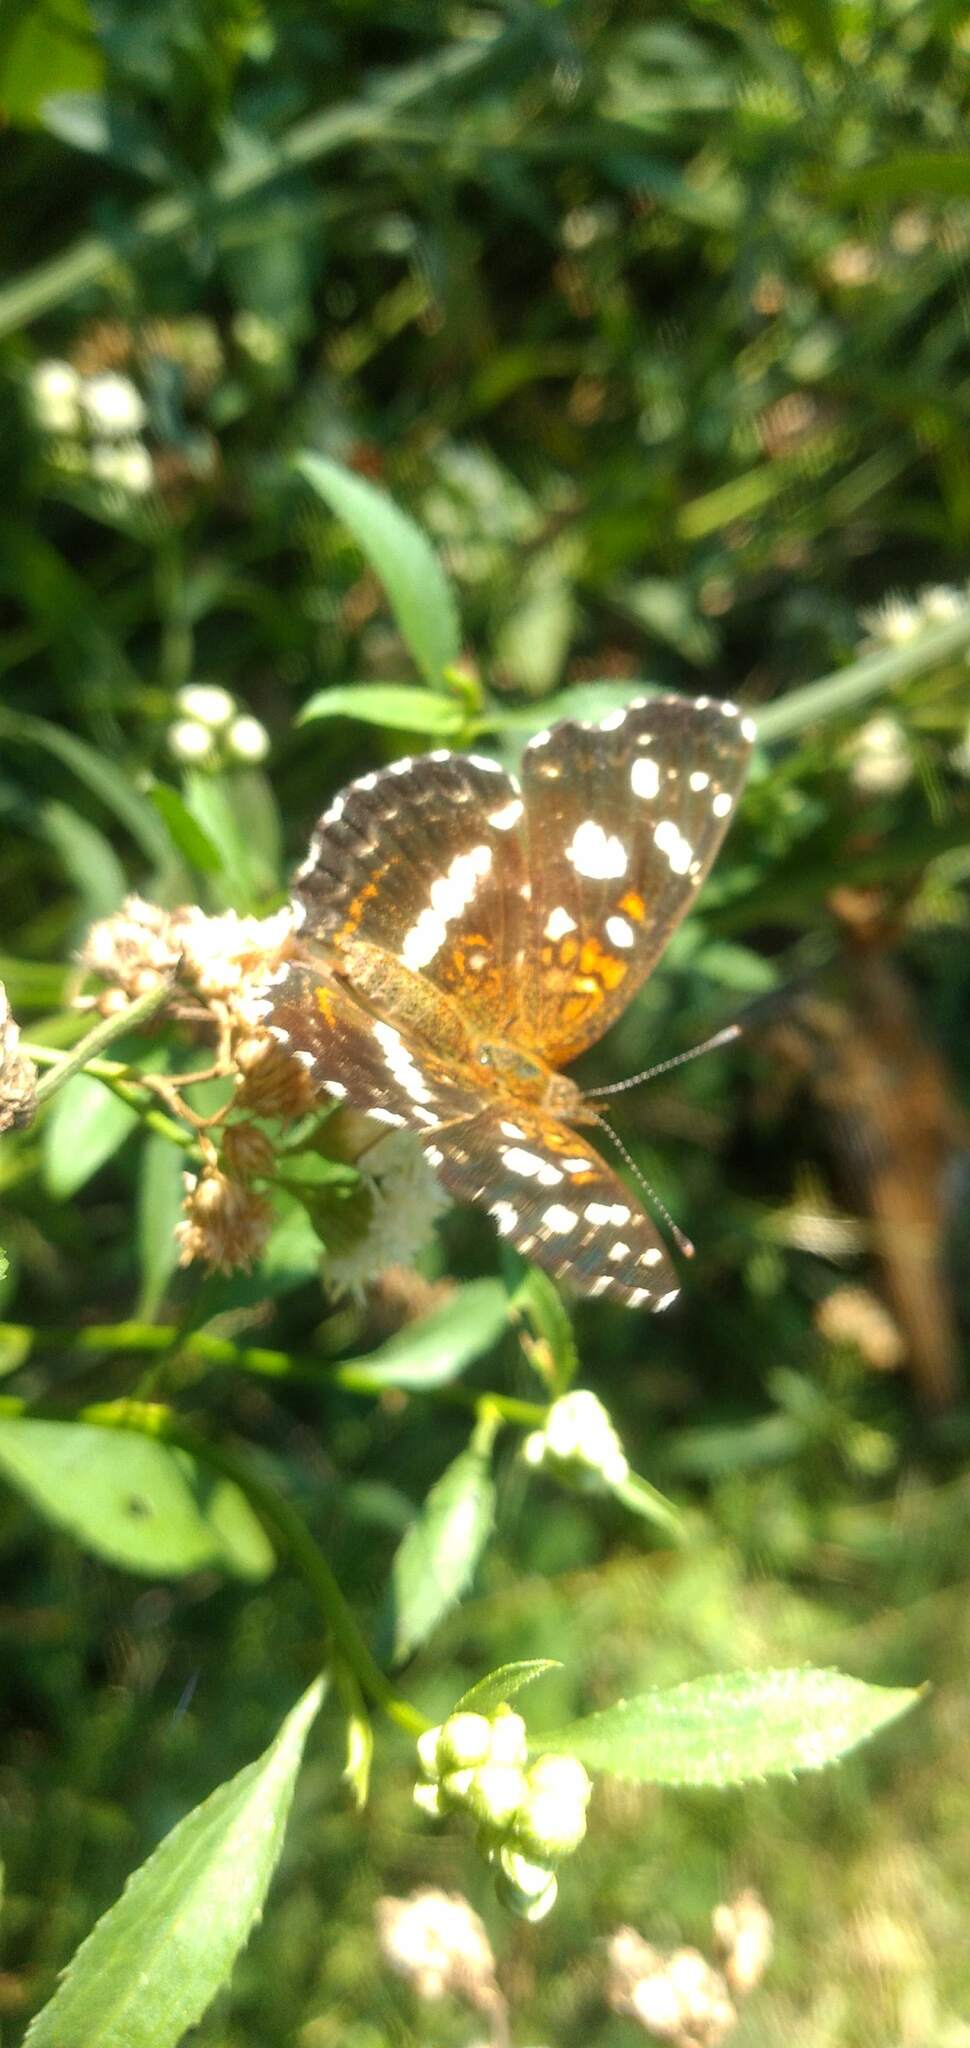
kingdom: Animalia
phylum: Arthropoda
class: Insecta
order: Lepidoptera
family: Nymphalidae
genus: Ortilia
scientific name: Ortilia ithra
